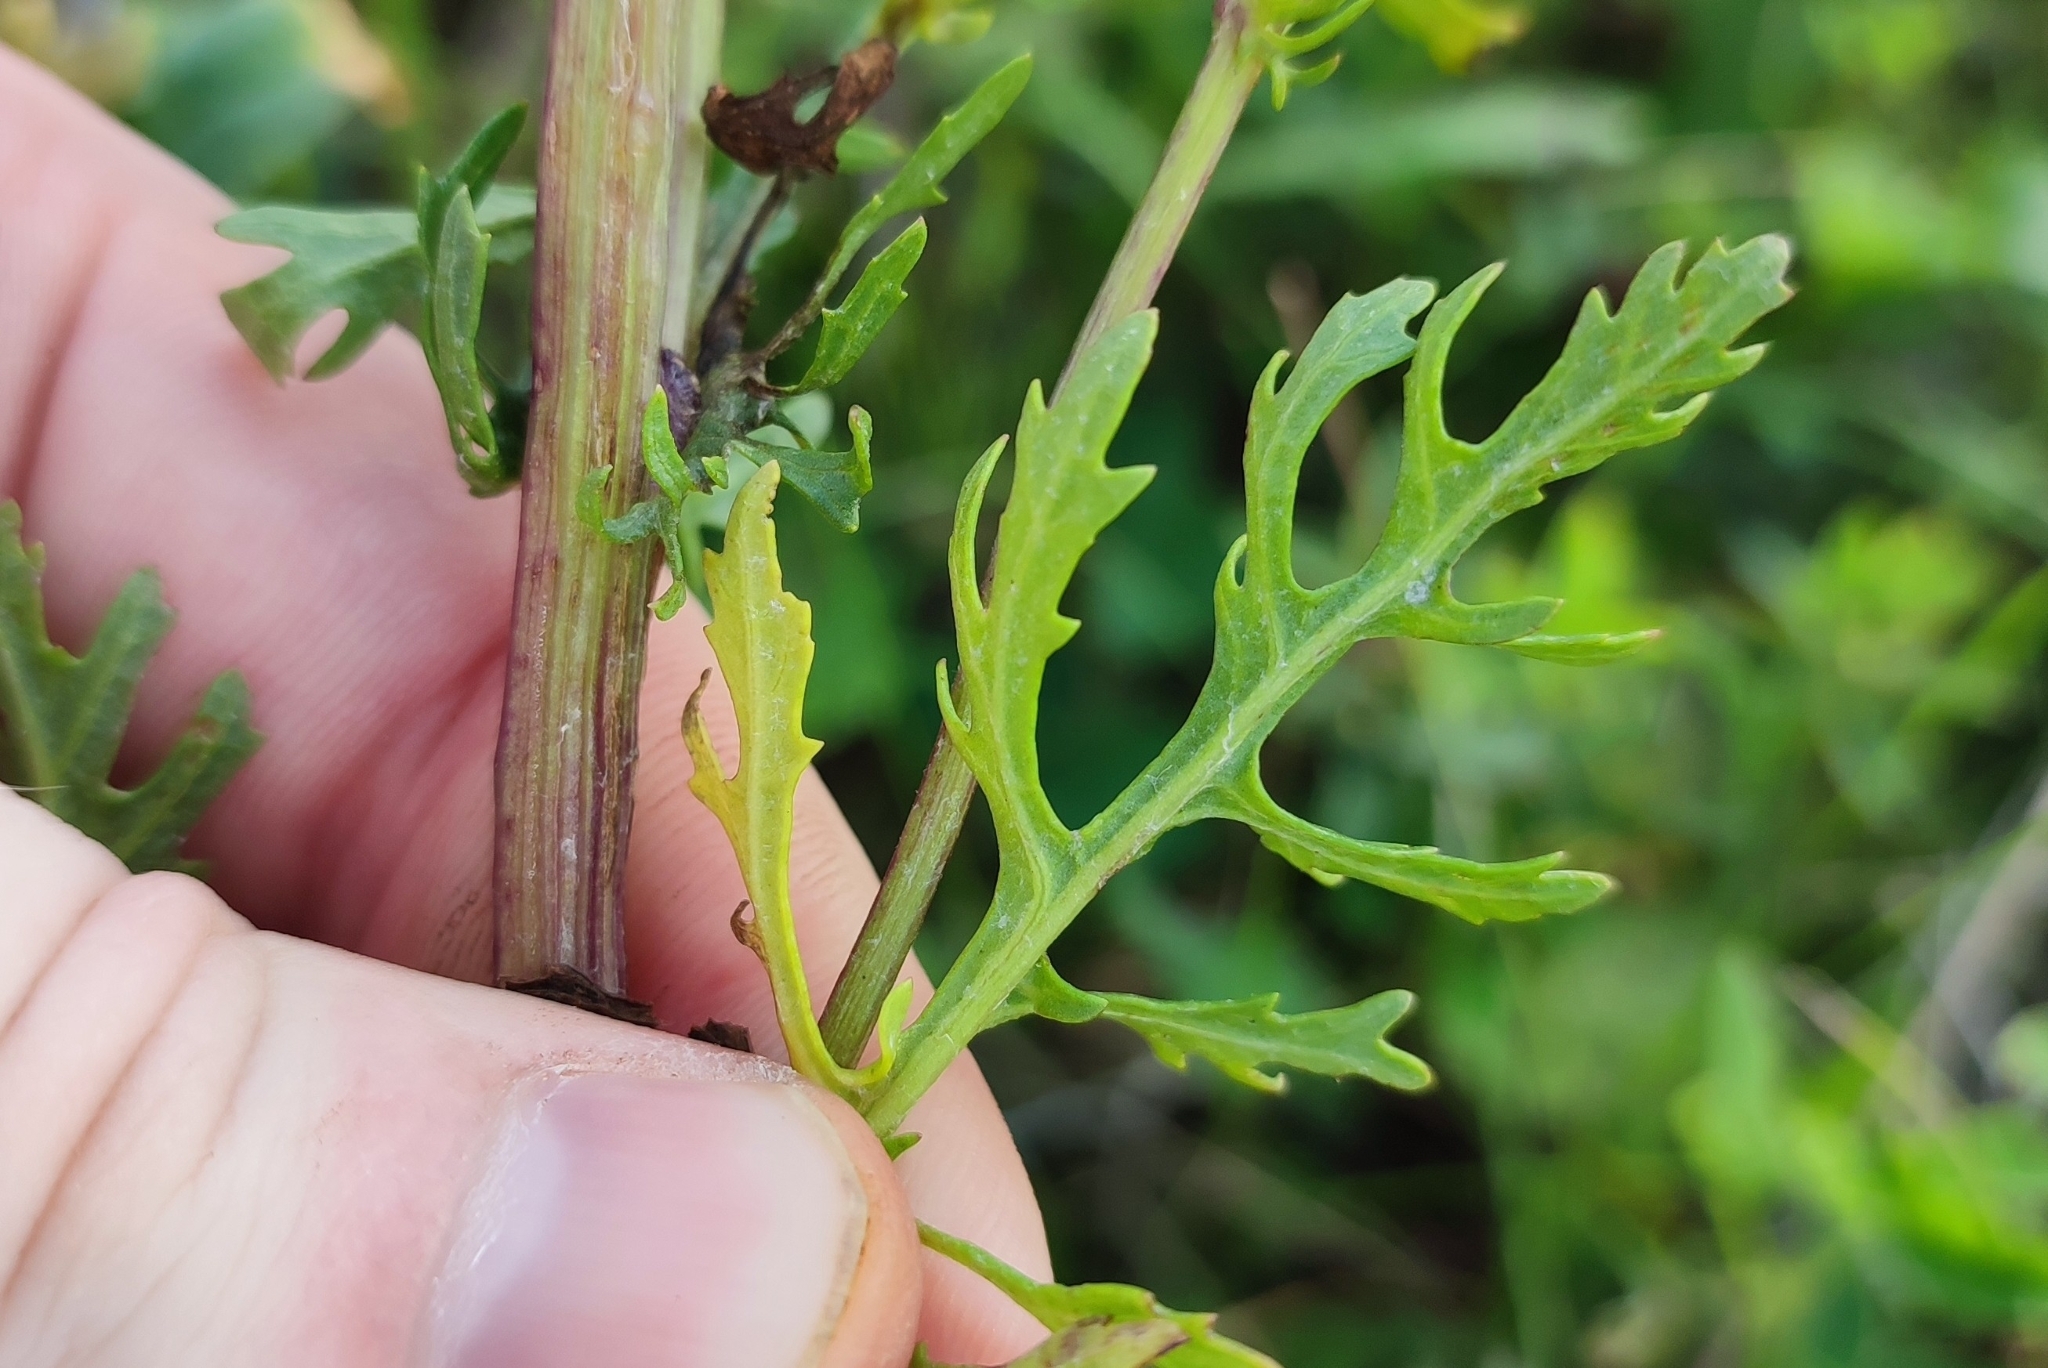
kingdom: Plantae
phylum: Tracheophyta
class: Magnoliopsida
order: Asterales
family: Asteraceae
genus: Jacobaea
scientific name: Jacobaea vulgaris
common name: Stinking willie
